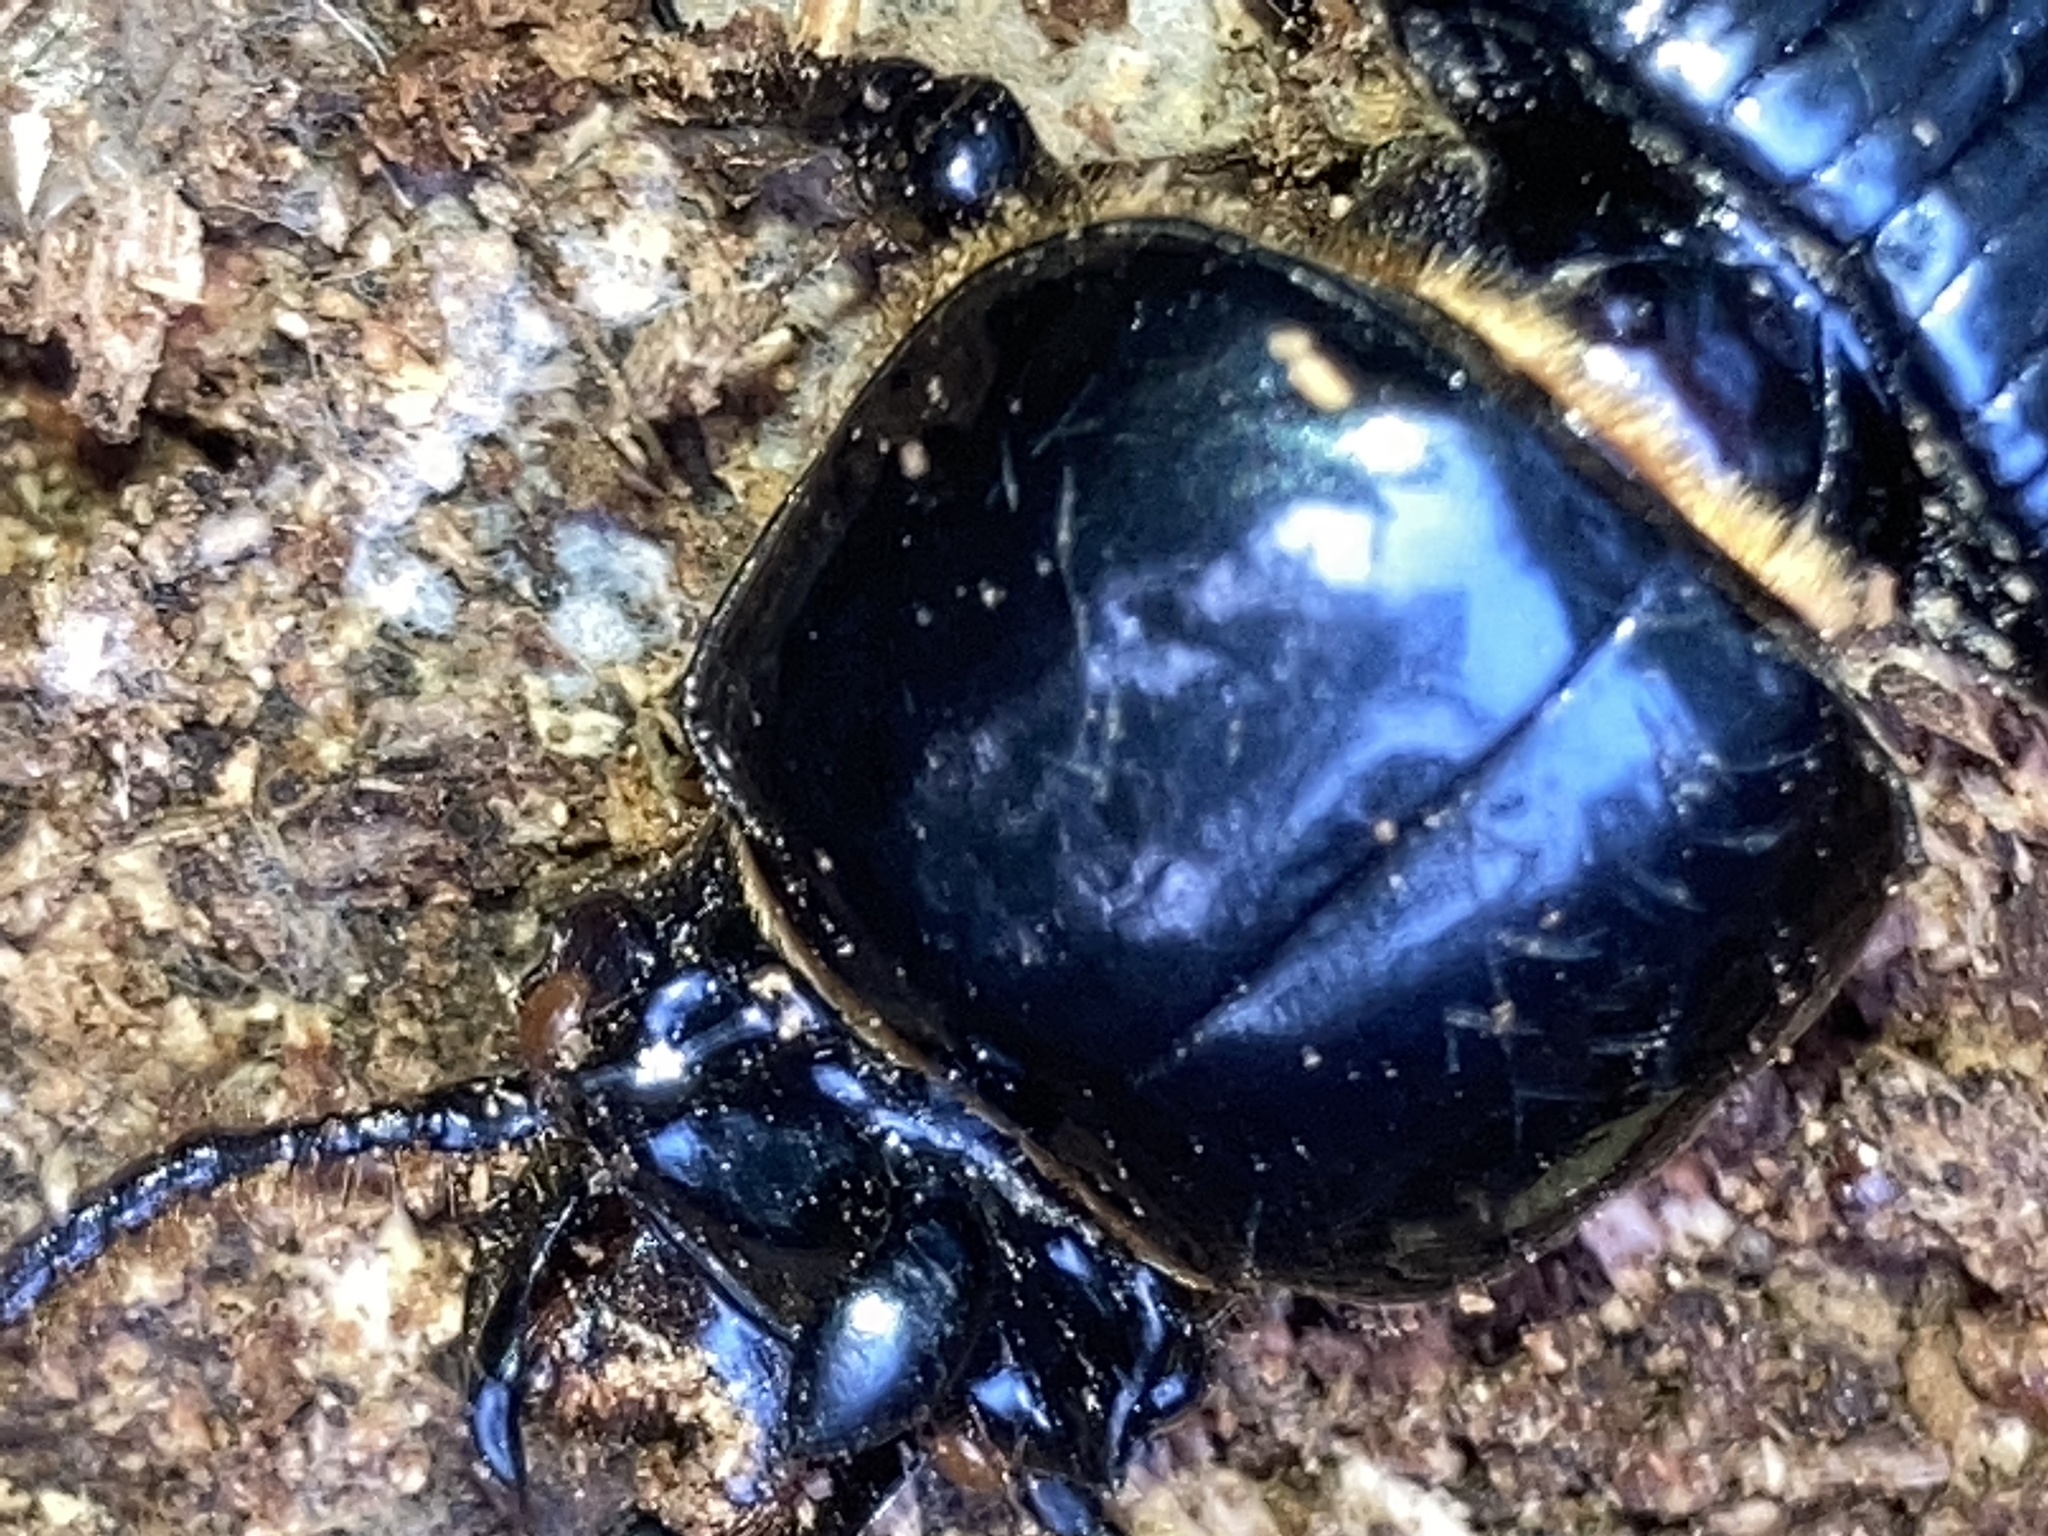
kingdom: Animalia
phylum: Arthropoda
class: Insecta
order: Coleoptera
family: Passalidae
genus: Odontotaenius
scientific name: Odontotaenius disjunctus
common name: Patent leather beetle
